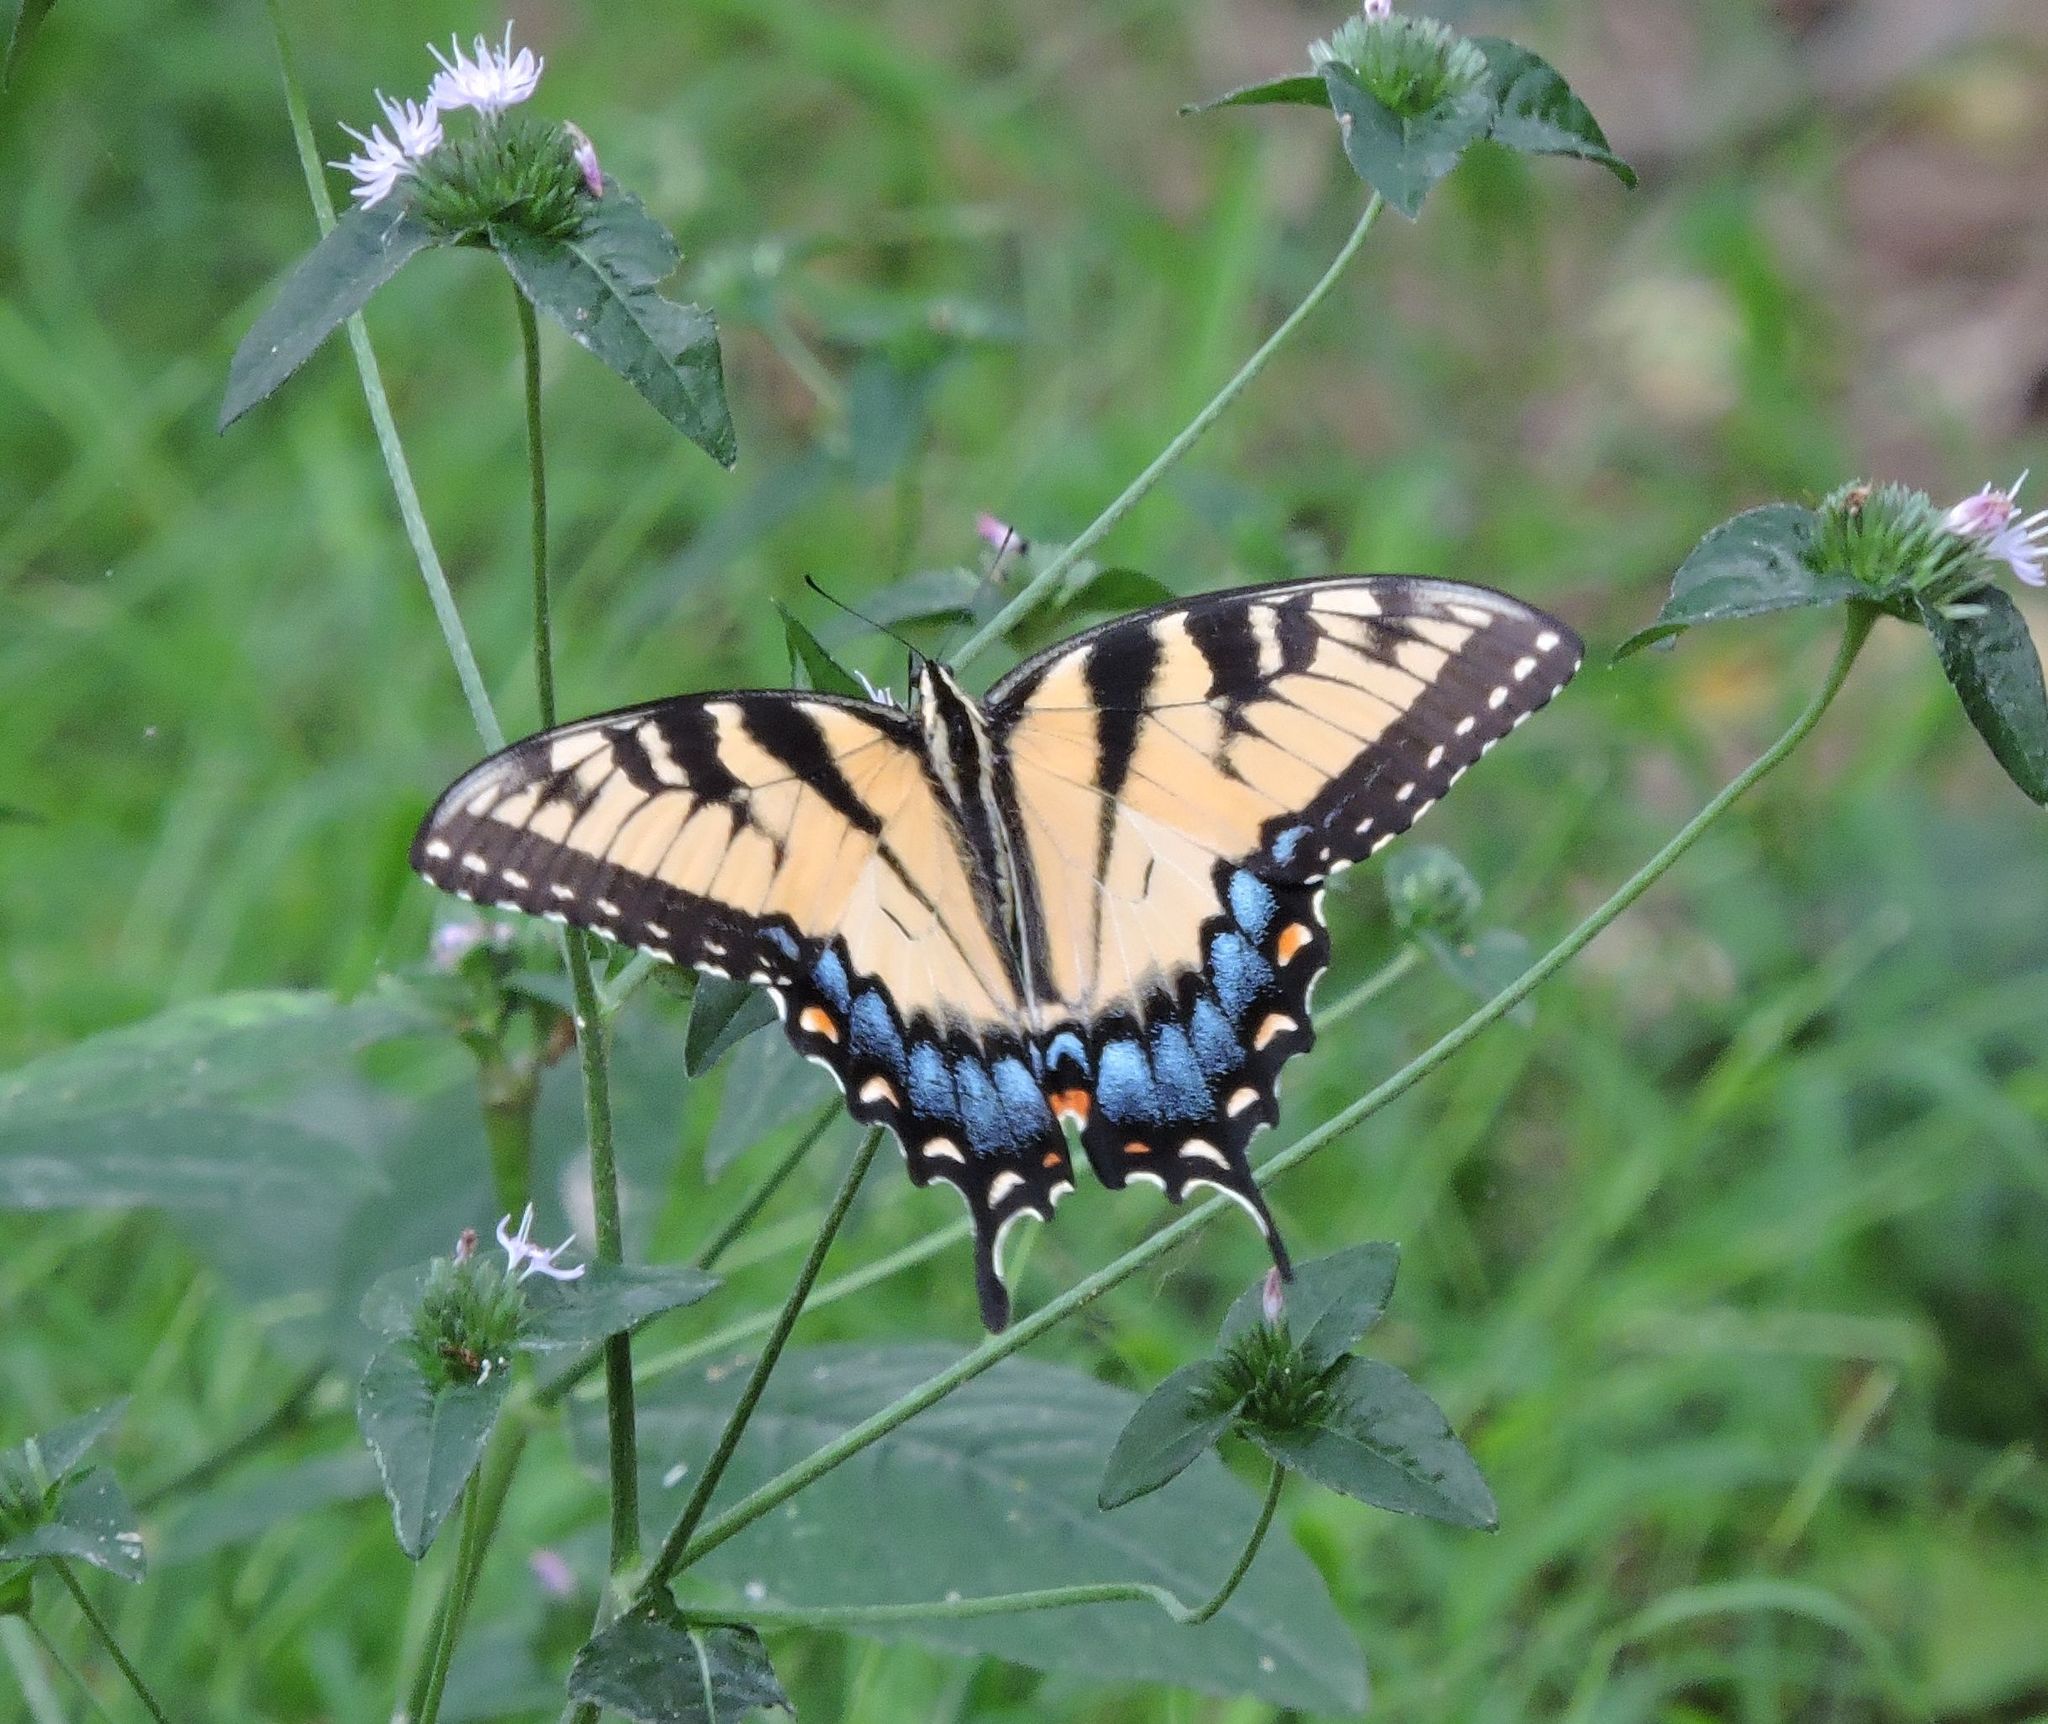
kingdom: Animalia
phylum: Arthropoda
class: Insecta
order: Lepidoptera
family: Papilionidae
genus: Papilio
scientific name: Papilio glaucus
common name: Tiger swallowtail
